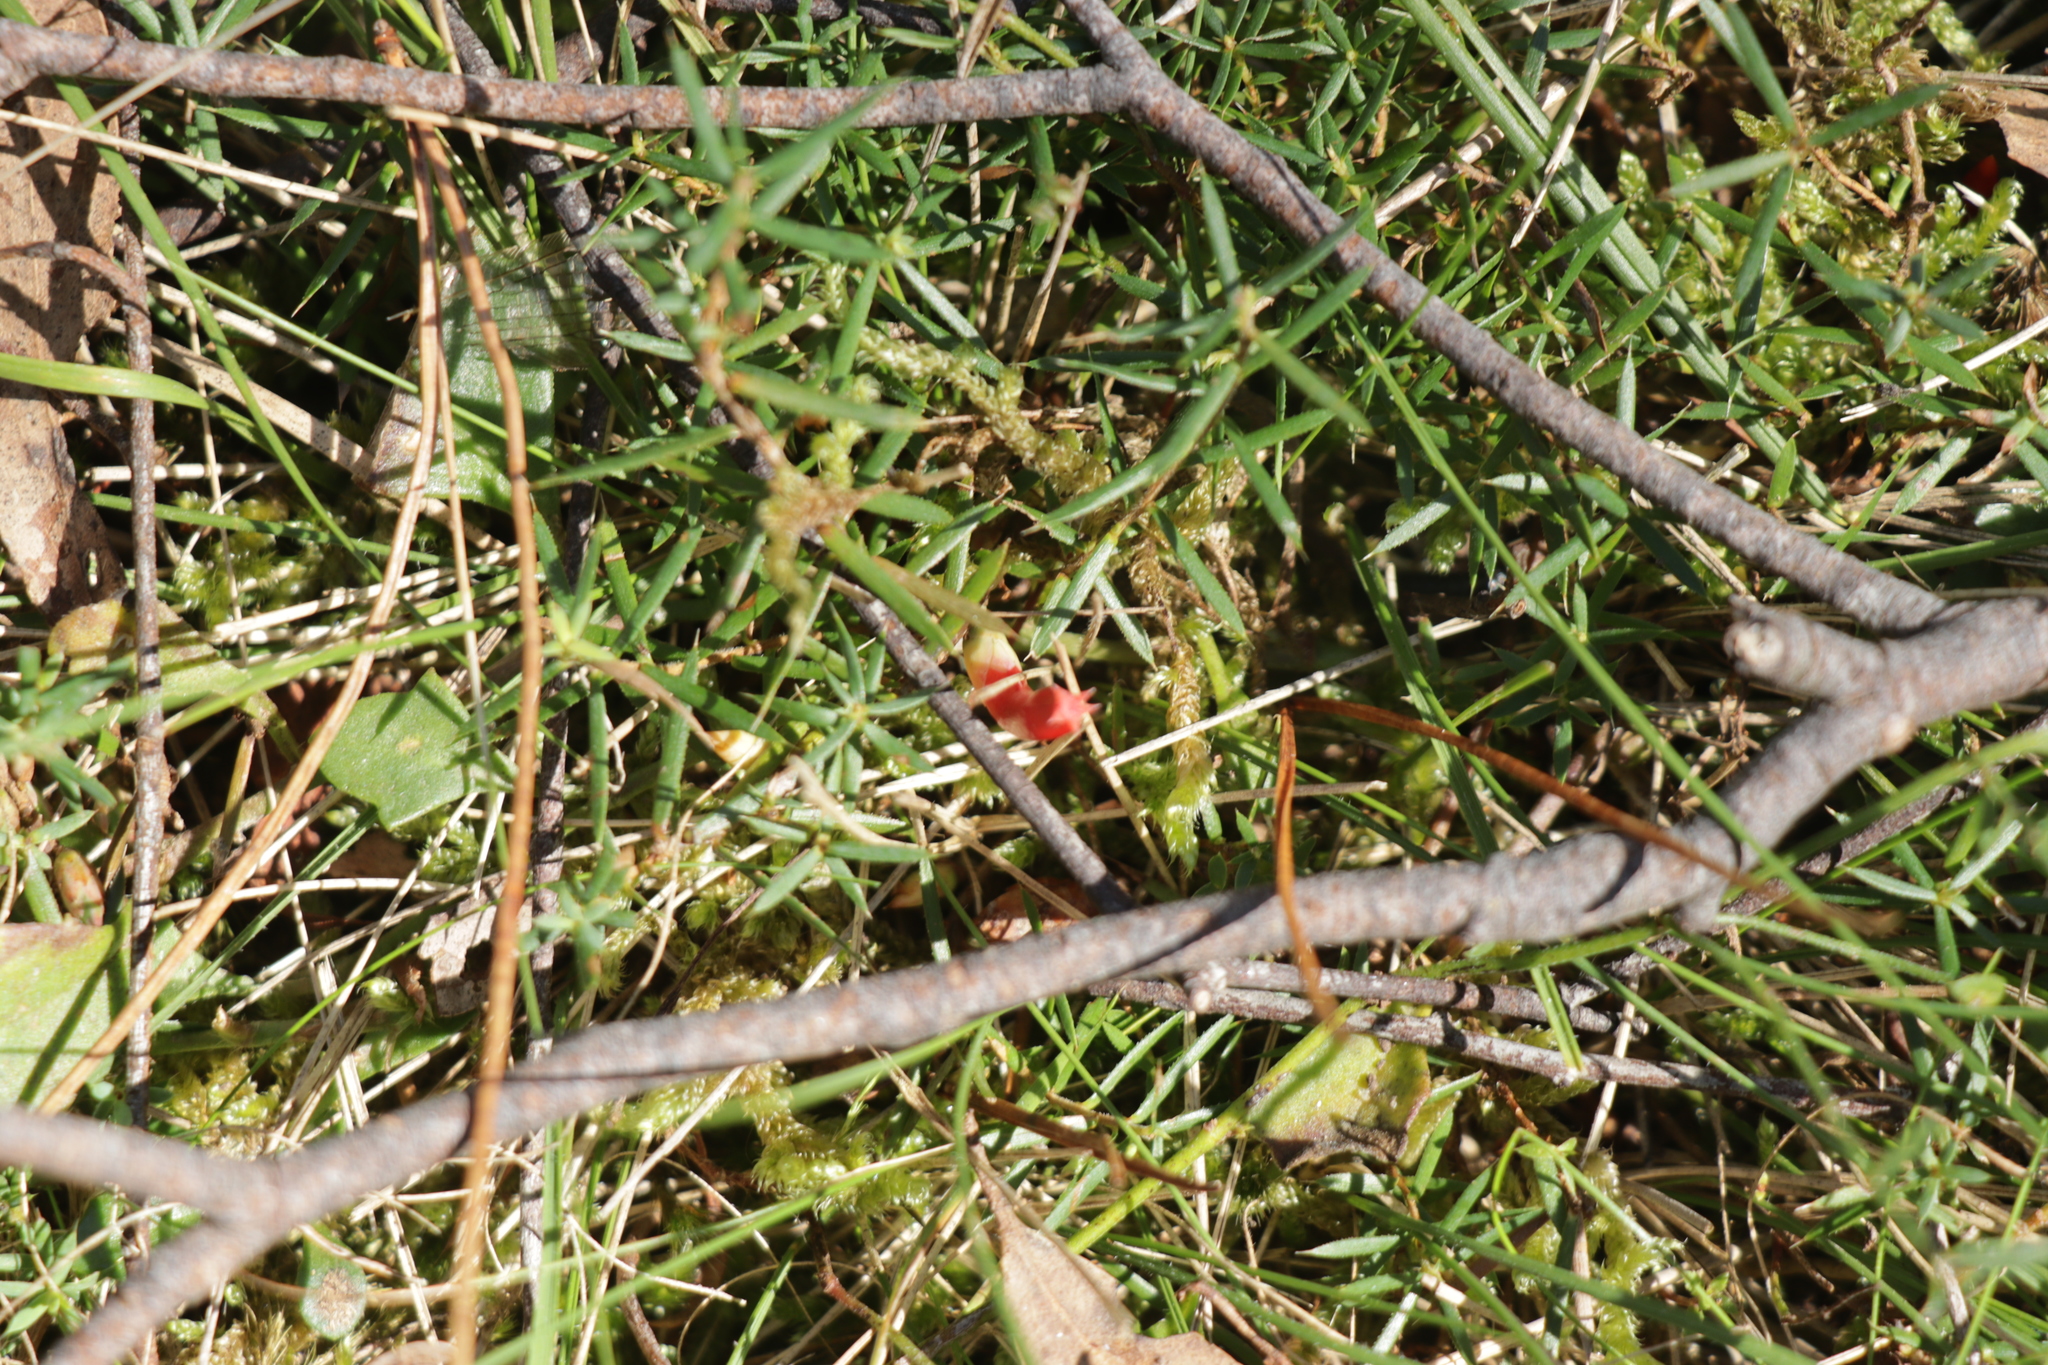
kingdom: Plantae
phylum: Tracheophyta
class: Magnoliopsida
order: Ericales
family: Ericaceae
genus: Styphelia
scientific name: Styphelia humifusa
